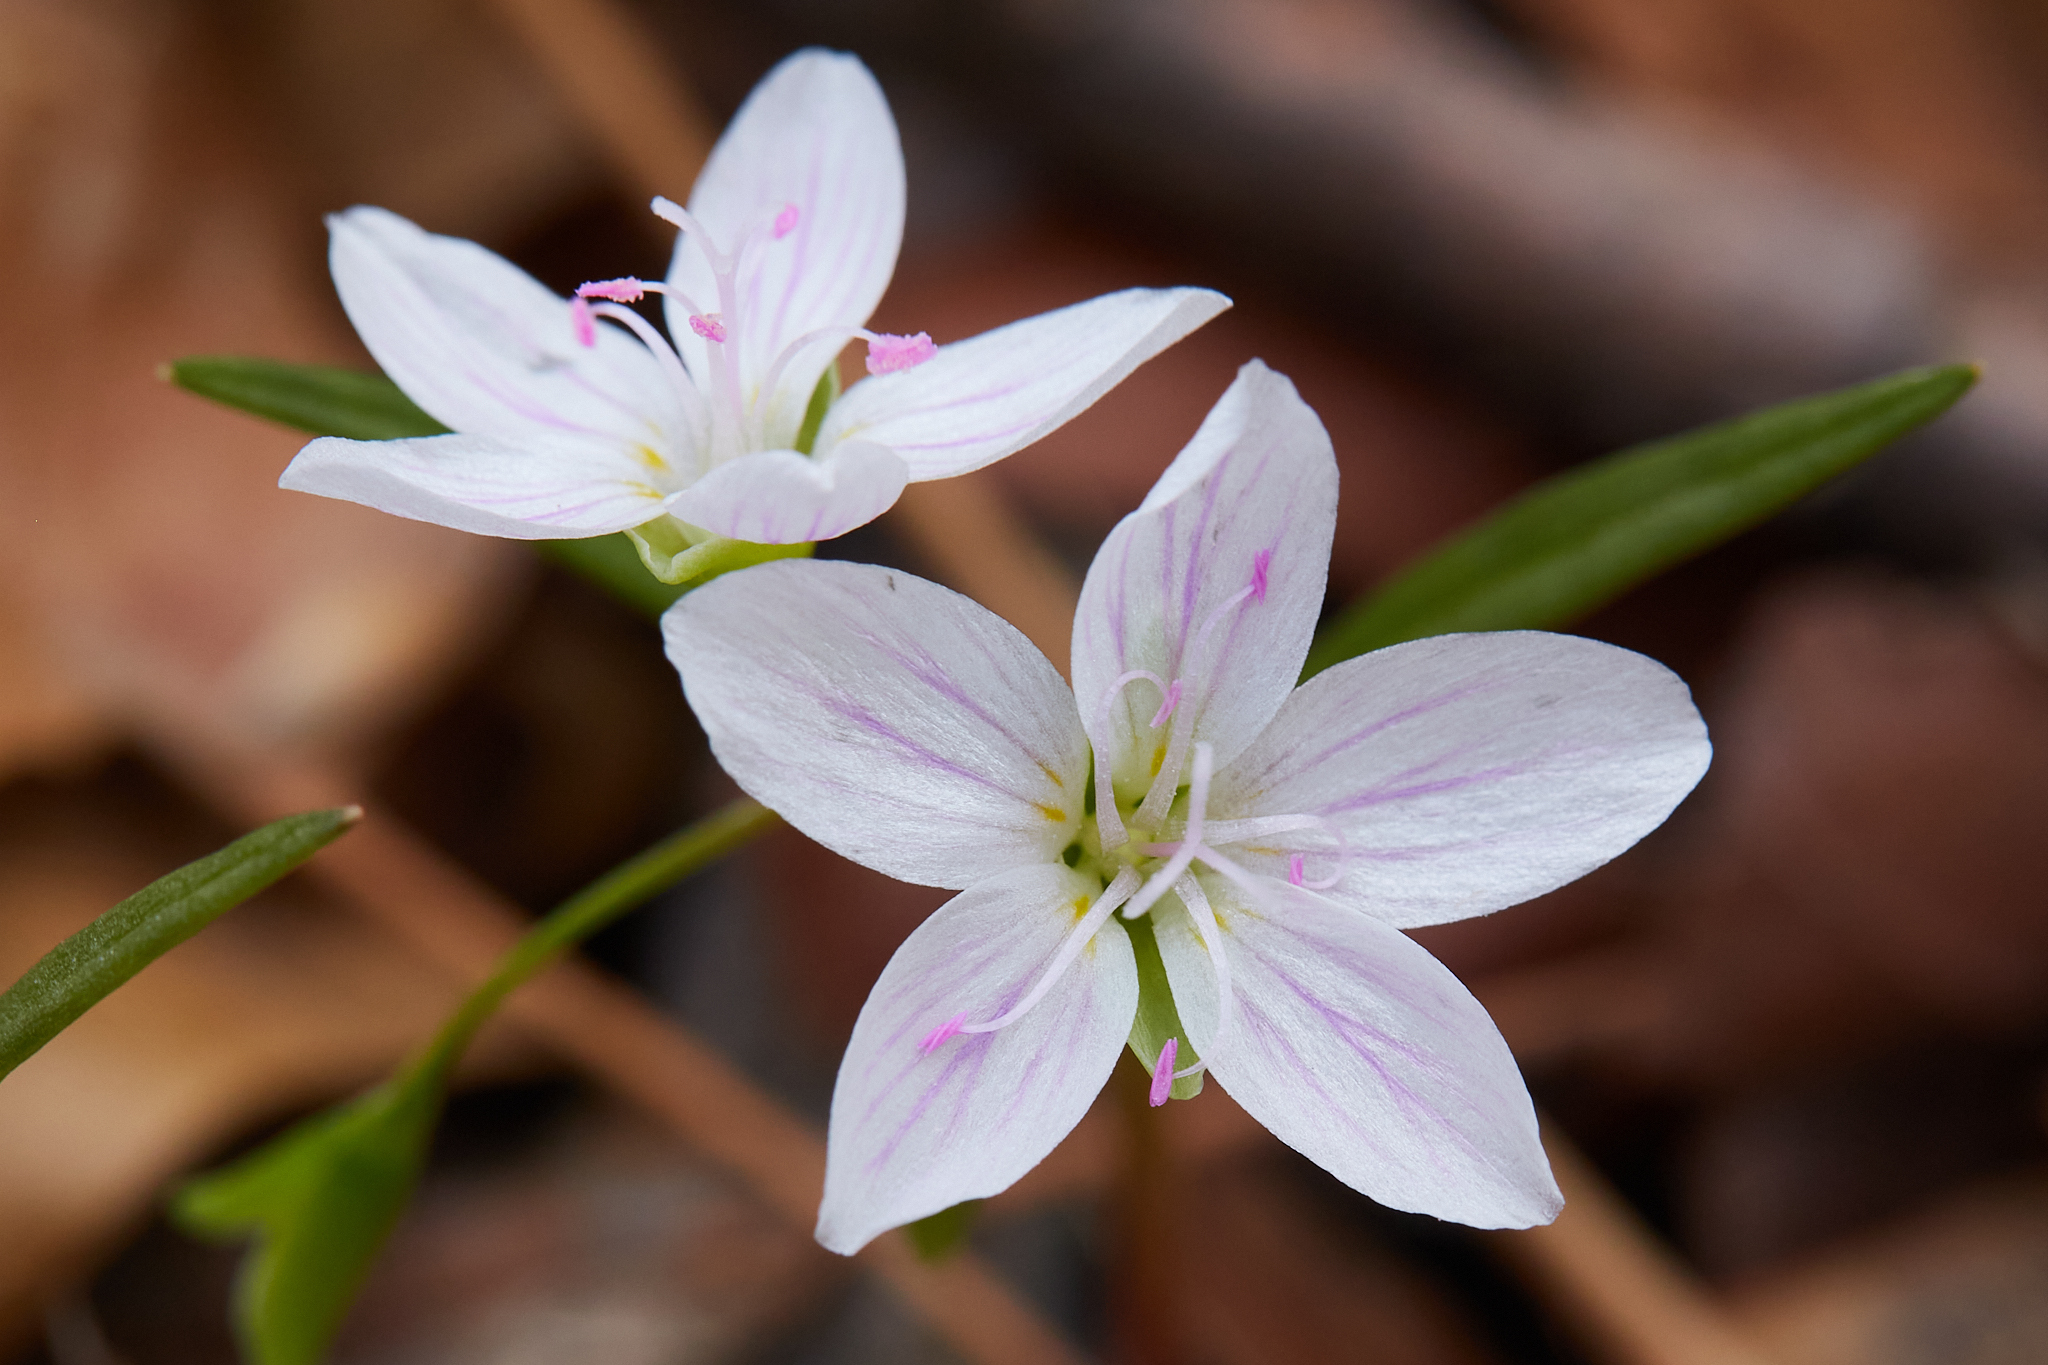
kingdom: Plantae
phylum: Tracheophyta
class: Magnoliopsida
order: Caryophyllales
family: Montiaceae
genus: Claytonia
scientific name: Claytonia virginica
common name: Virginia springbeauty
